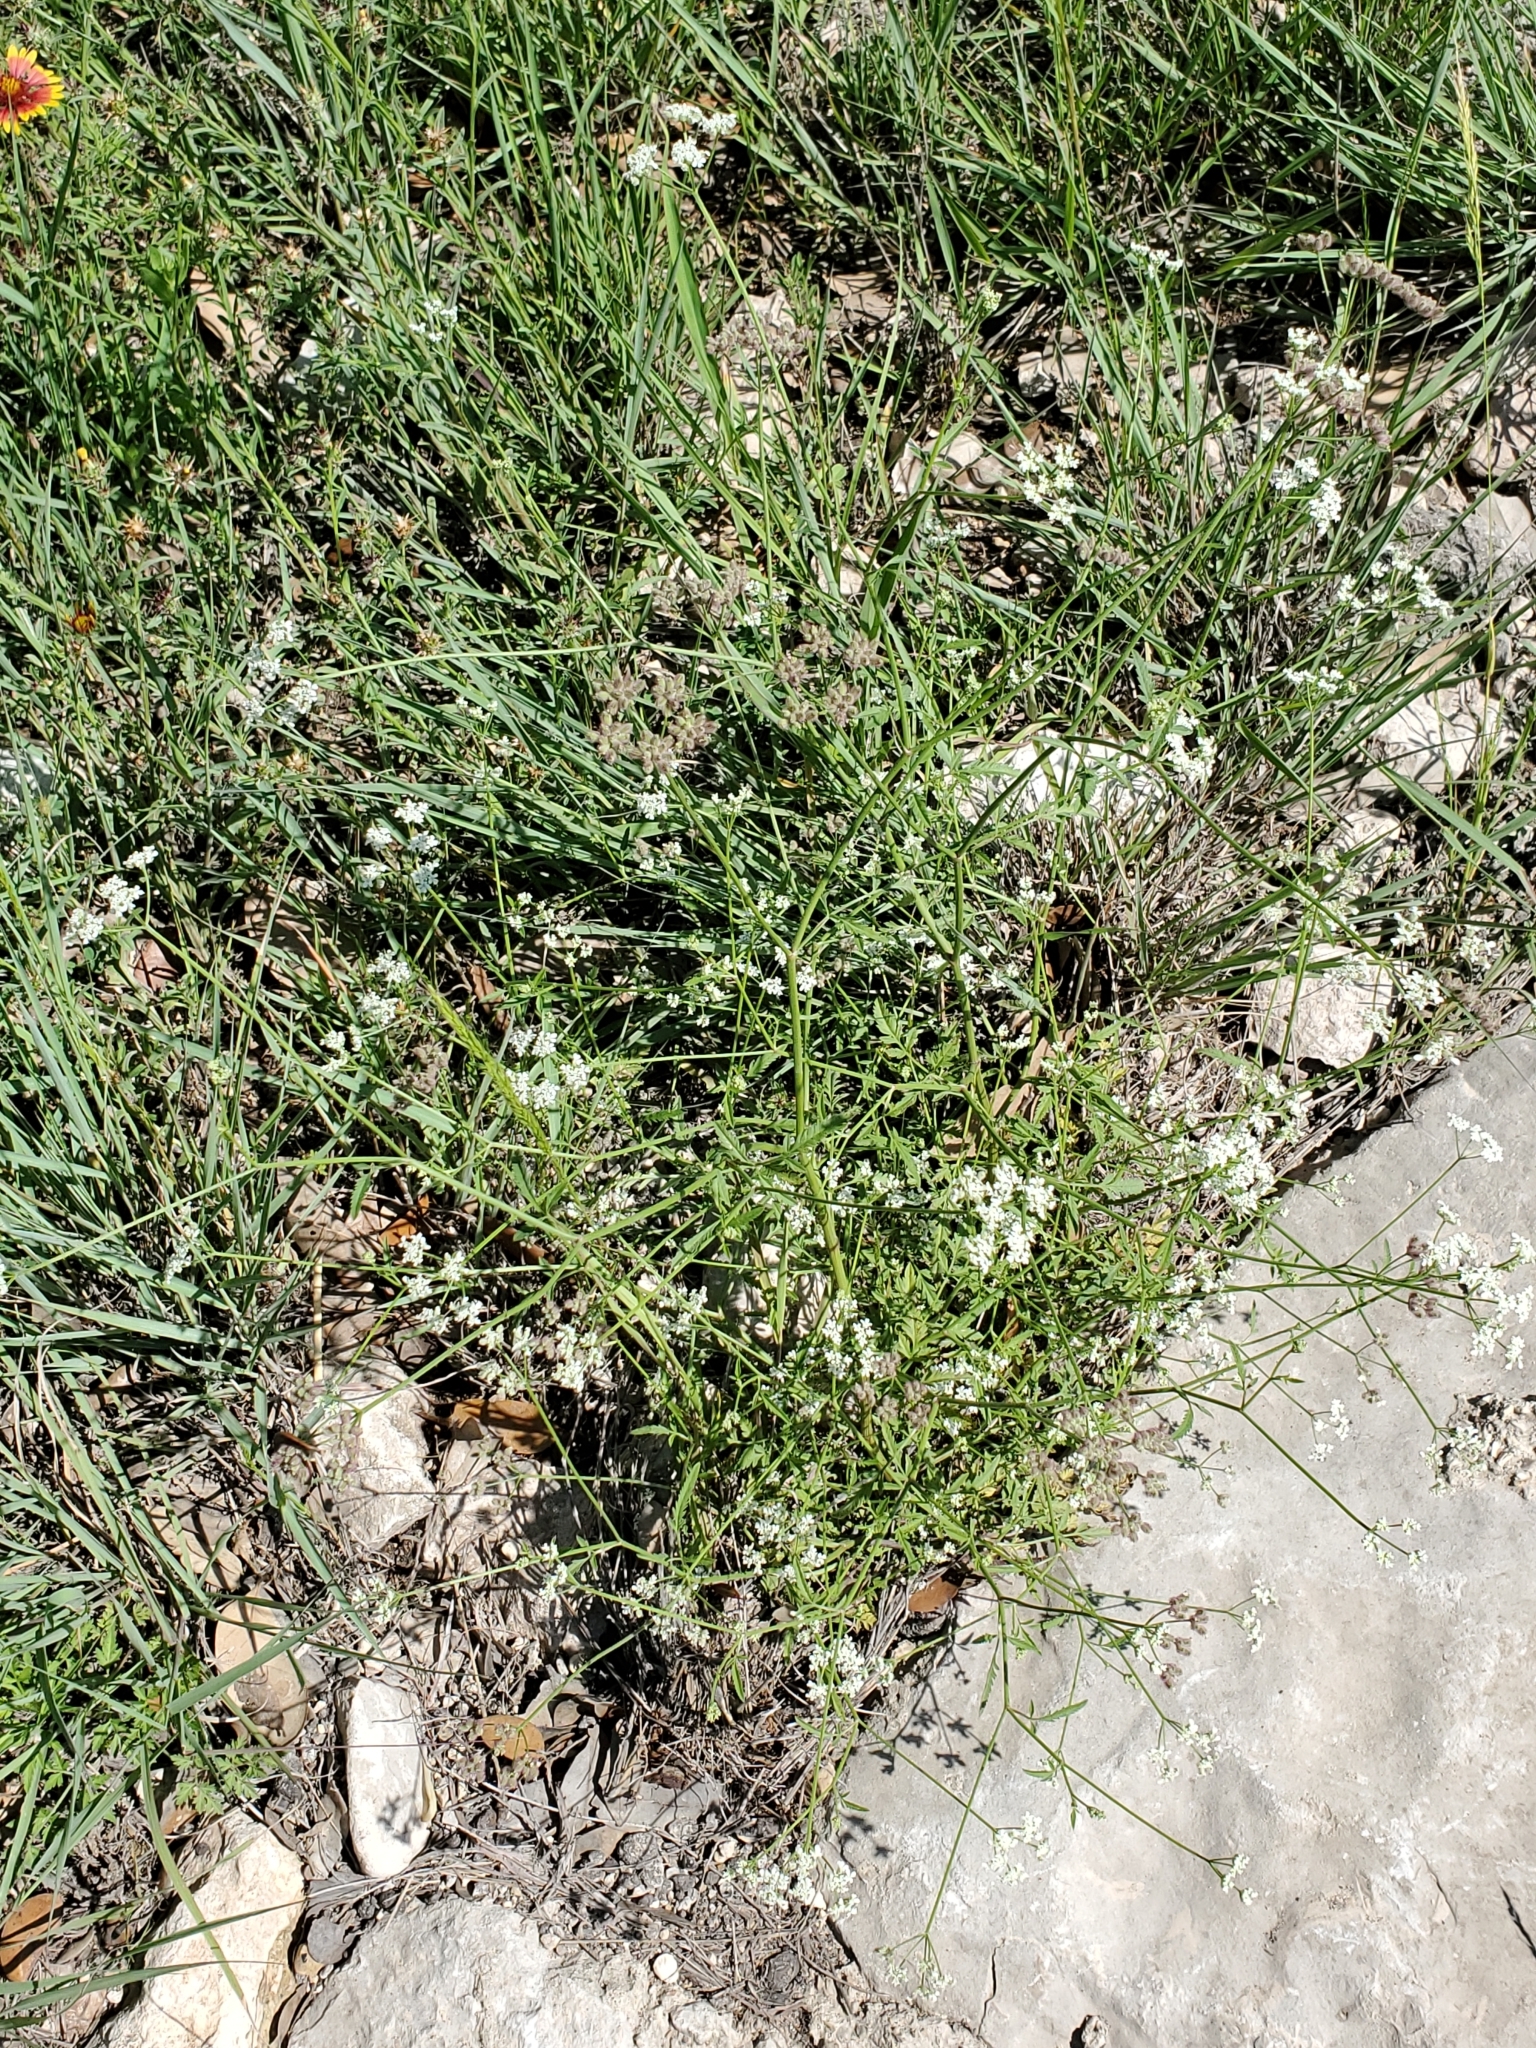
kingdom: Plantae
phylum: Tracheophyta
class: Magnoliopsida
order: Apiales
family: Apiaceae
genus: Torilis
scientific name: Torilis arvensis
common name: Spreading hedge-parsley
